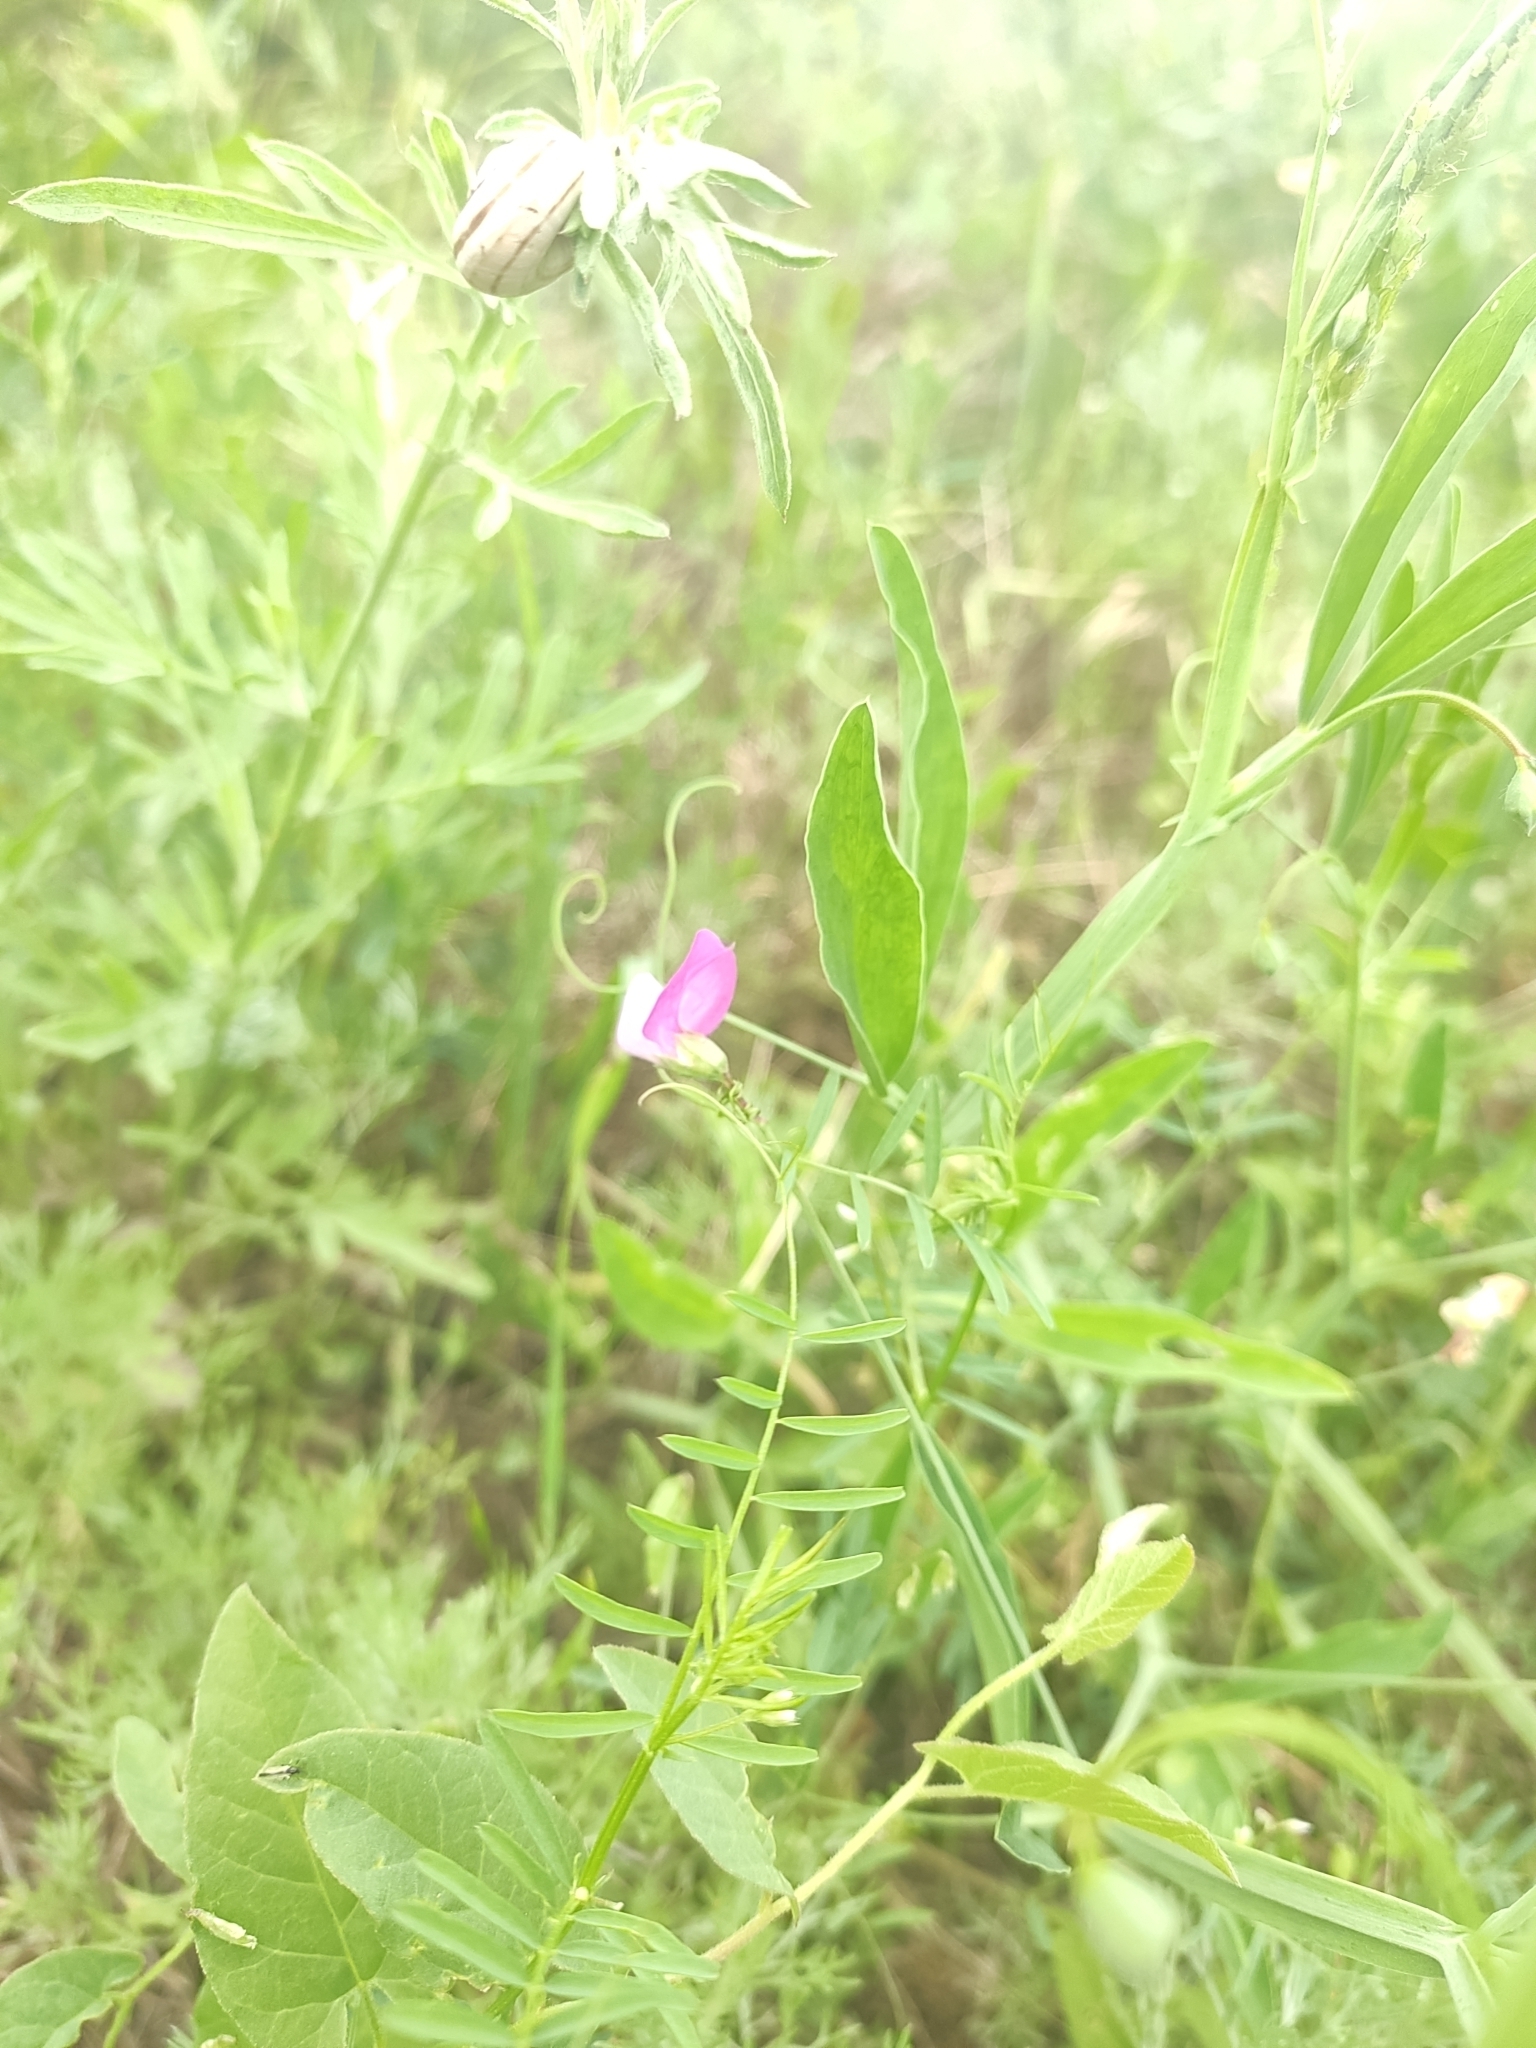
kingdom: Plantae
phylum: Tracheophyta
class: Magnoliopsida
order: Fabales
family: Fabaceae
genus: Lathyrus
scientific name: Lathyrus hirsutus
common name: Hairy vetchling
